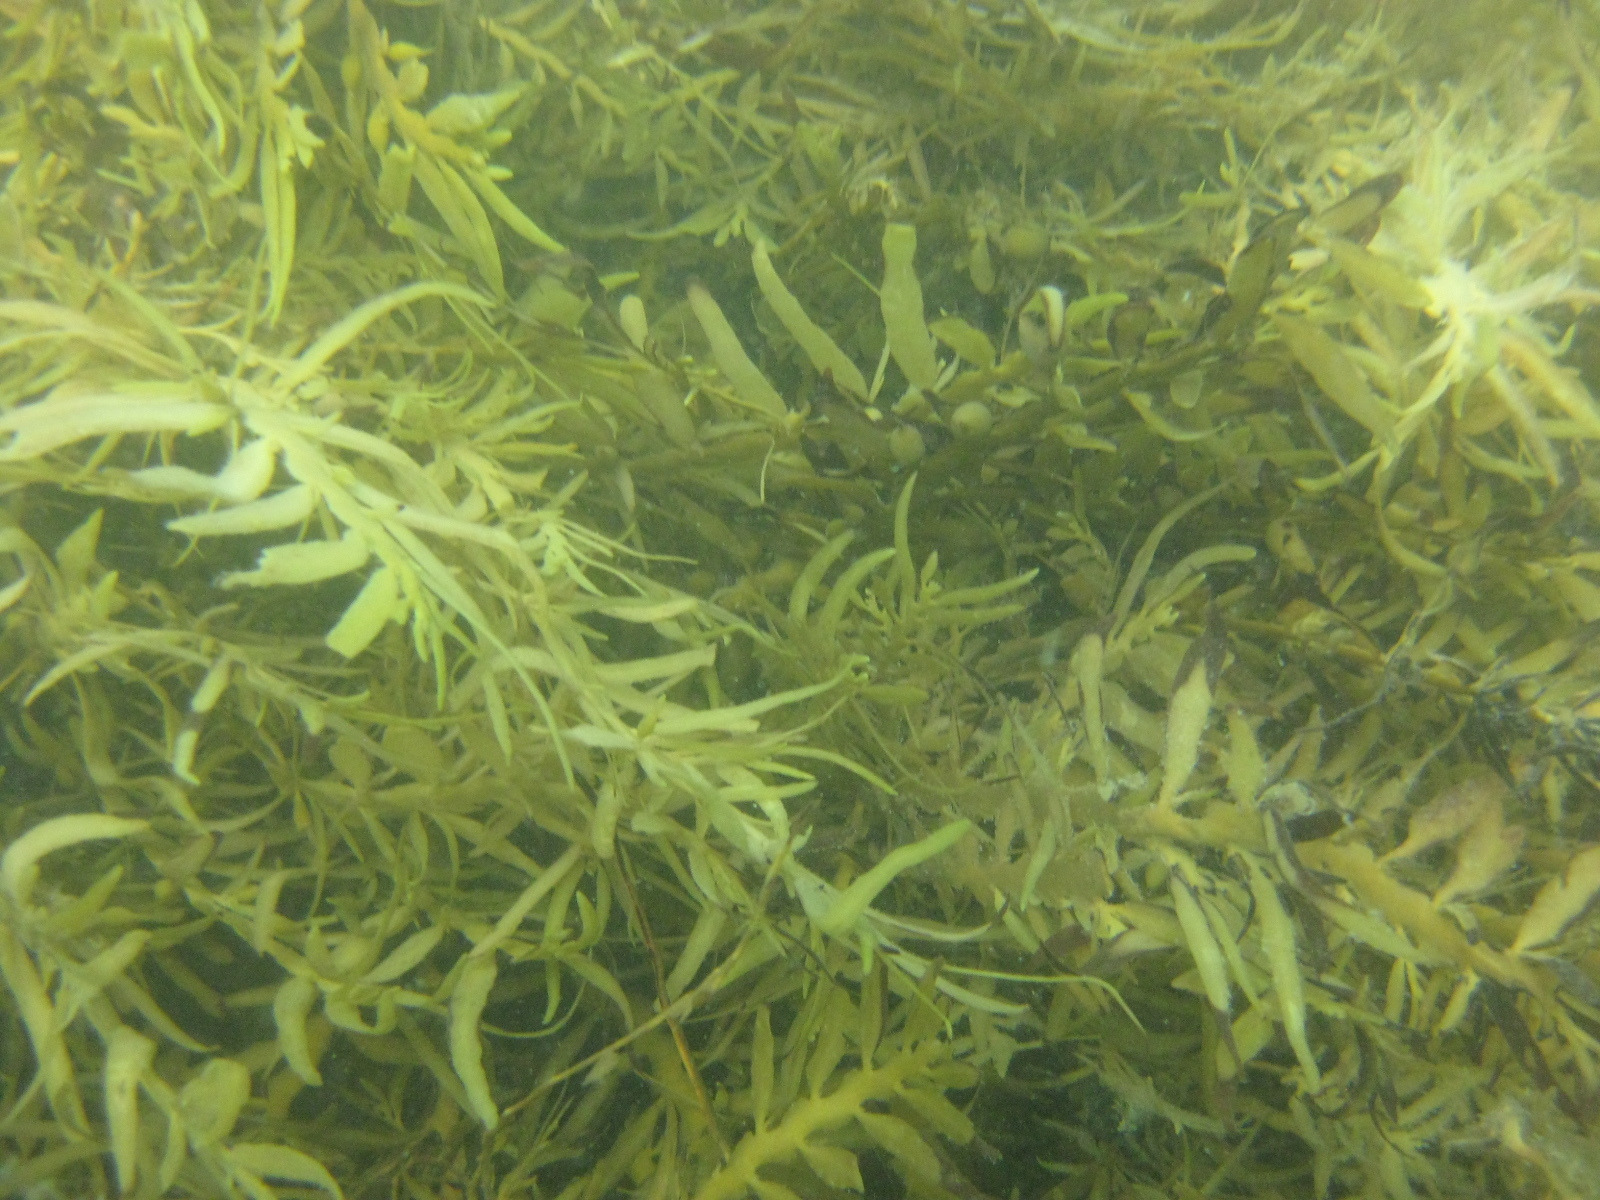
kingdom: Chromista
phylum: Ochrophyta
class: Phaeophyceae
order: Fucales
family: Sargassaceae
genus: Carpophyllum
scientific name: Carpophyllum maschalocarpum
